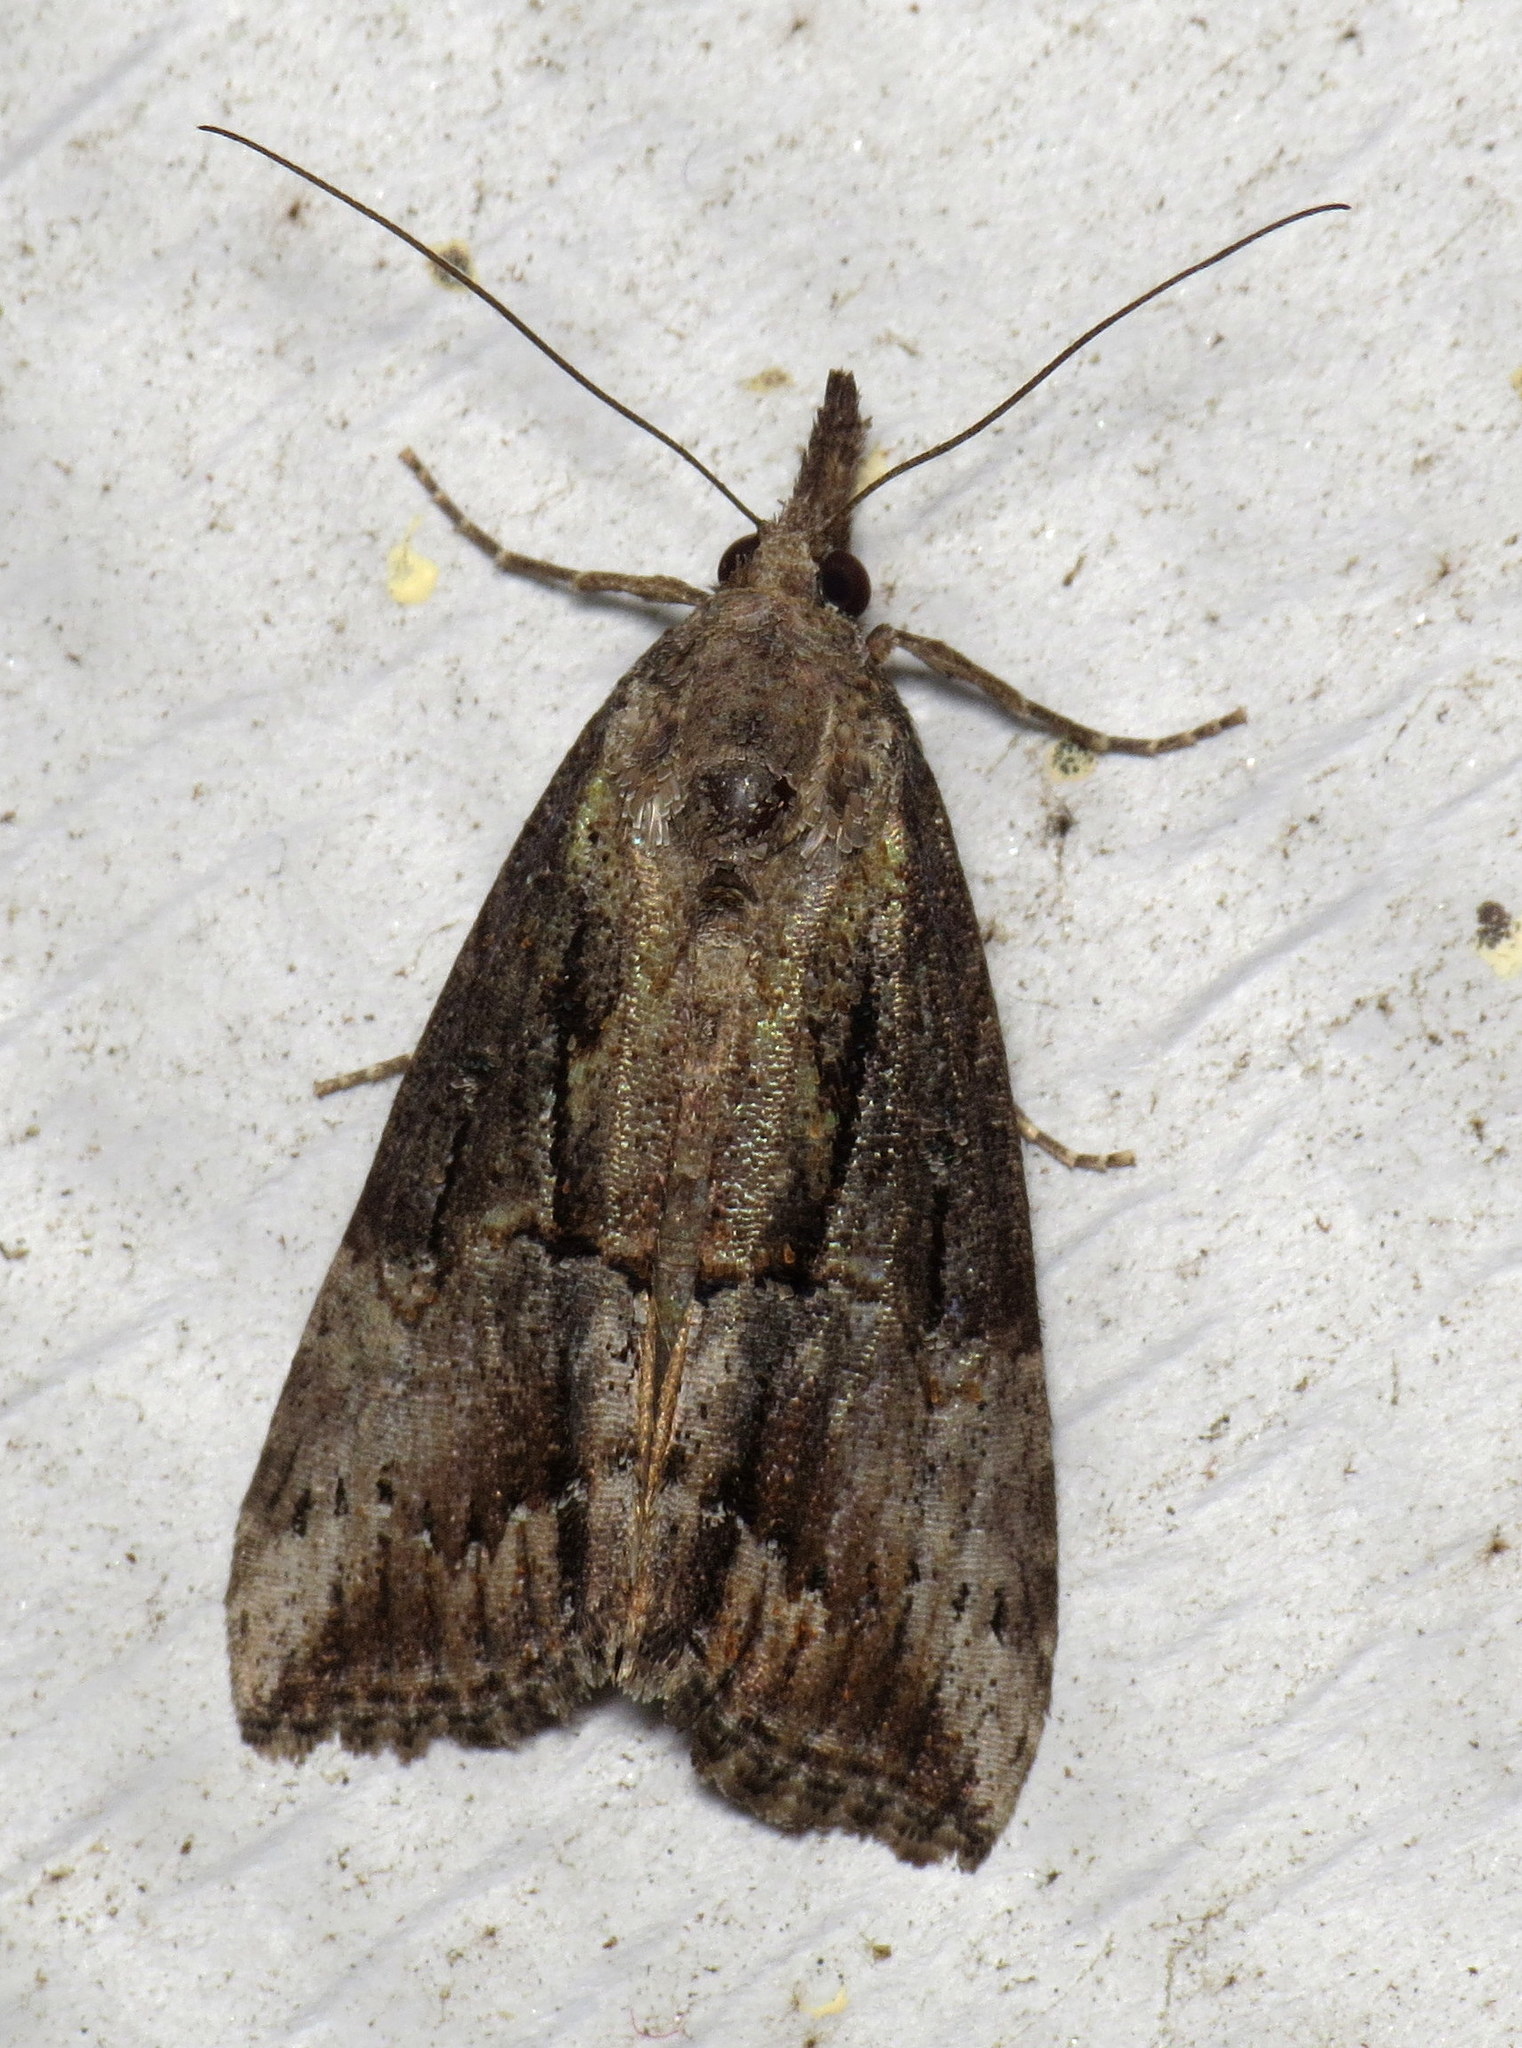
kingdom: Animalia
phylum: Arthropoda
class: Insecta
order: Lepidoptera
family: Erebidae
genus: Hypena
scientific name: Hypena scabra
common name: Green cloverworm
